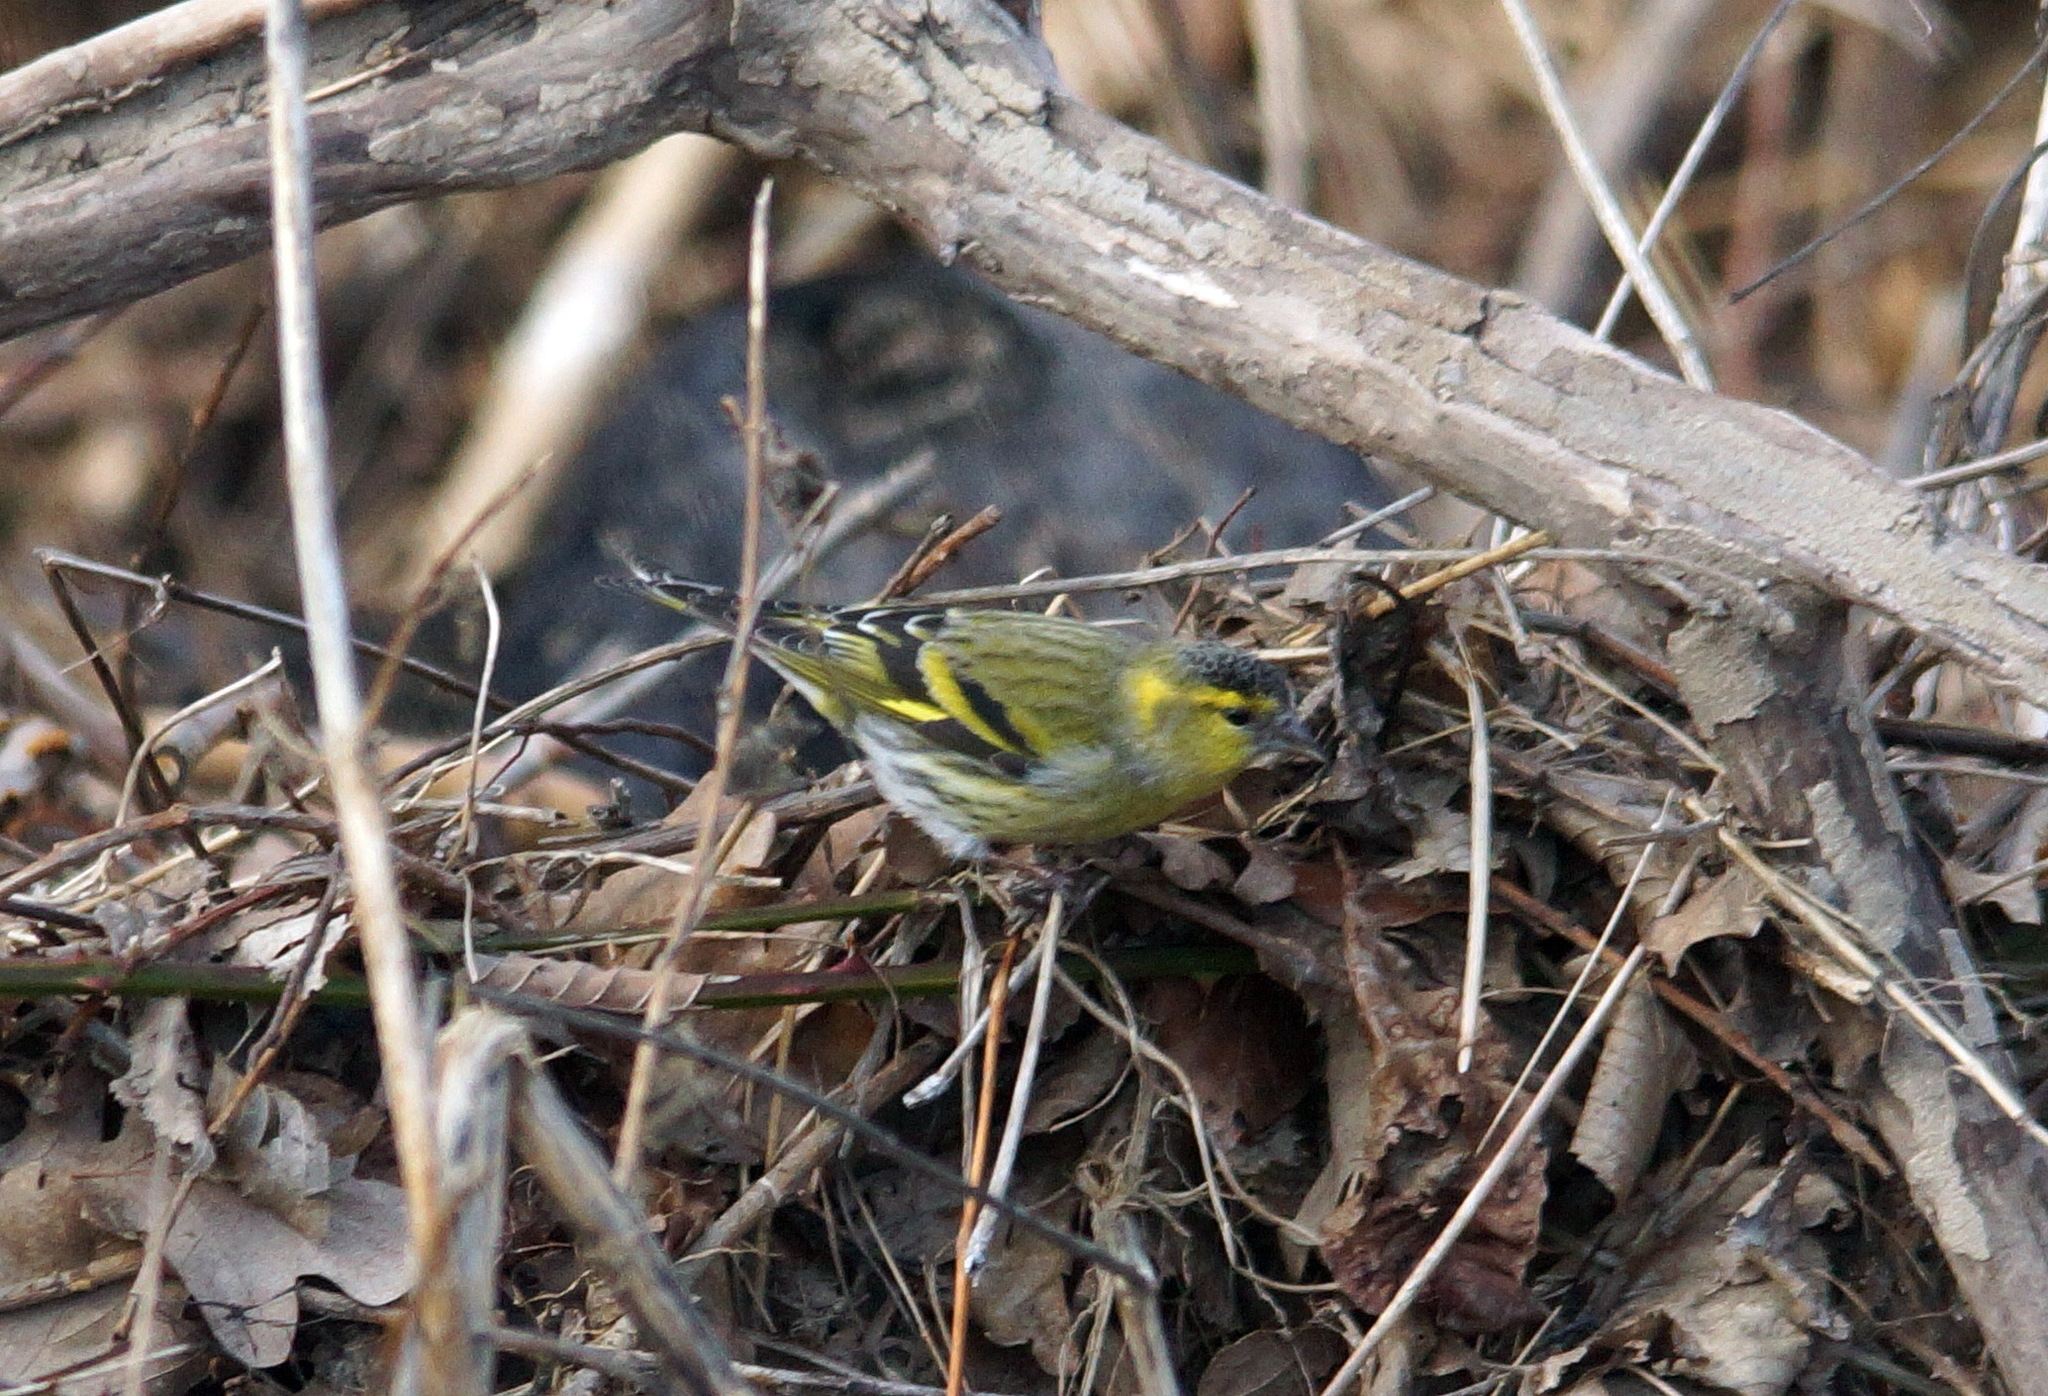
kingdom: Animalia
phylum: Chordata
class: Aves
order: Passeriformes
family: Fringillidae
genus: Spinus
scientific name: Spinus spinus
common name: Eurasian siskin
